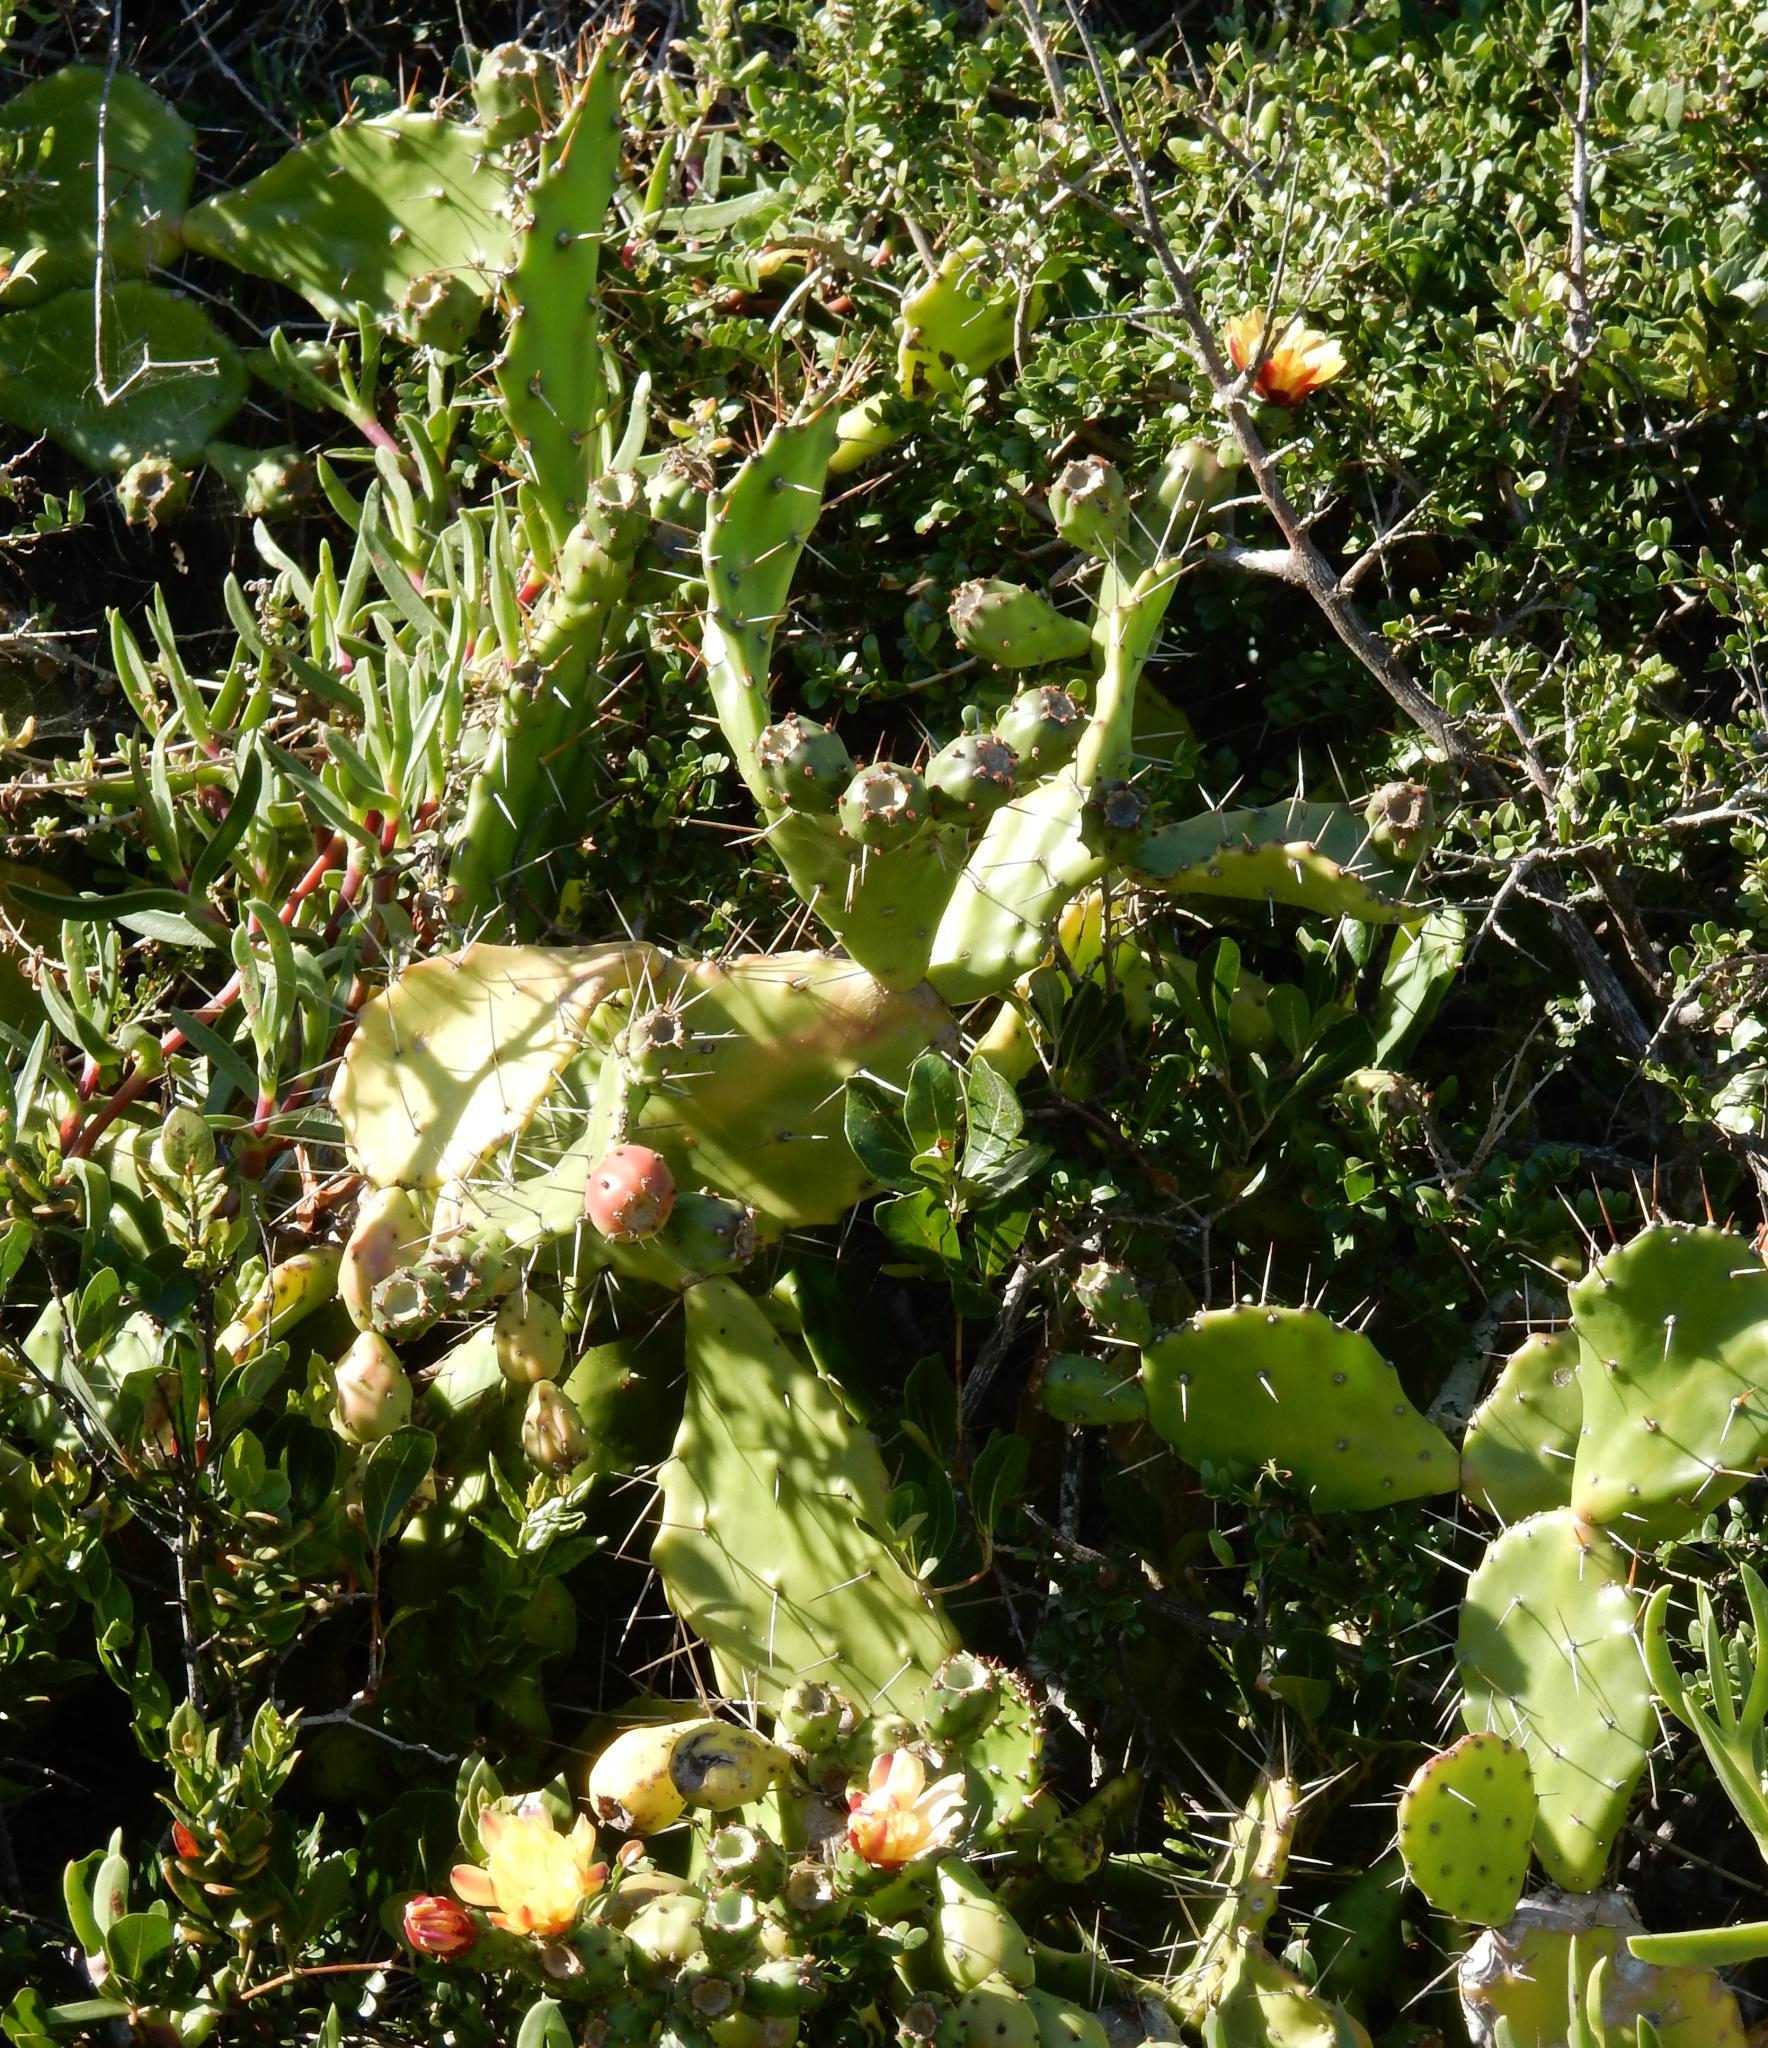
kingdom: Plantae
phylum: Tracheophyta
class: Magnoliopsida
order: Caryophyllales
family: Cactaceae
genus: Opuntia
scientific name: Opuntia monacantha
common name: Common pricklypear
